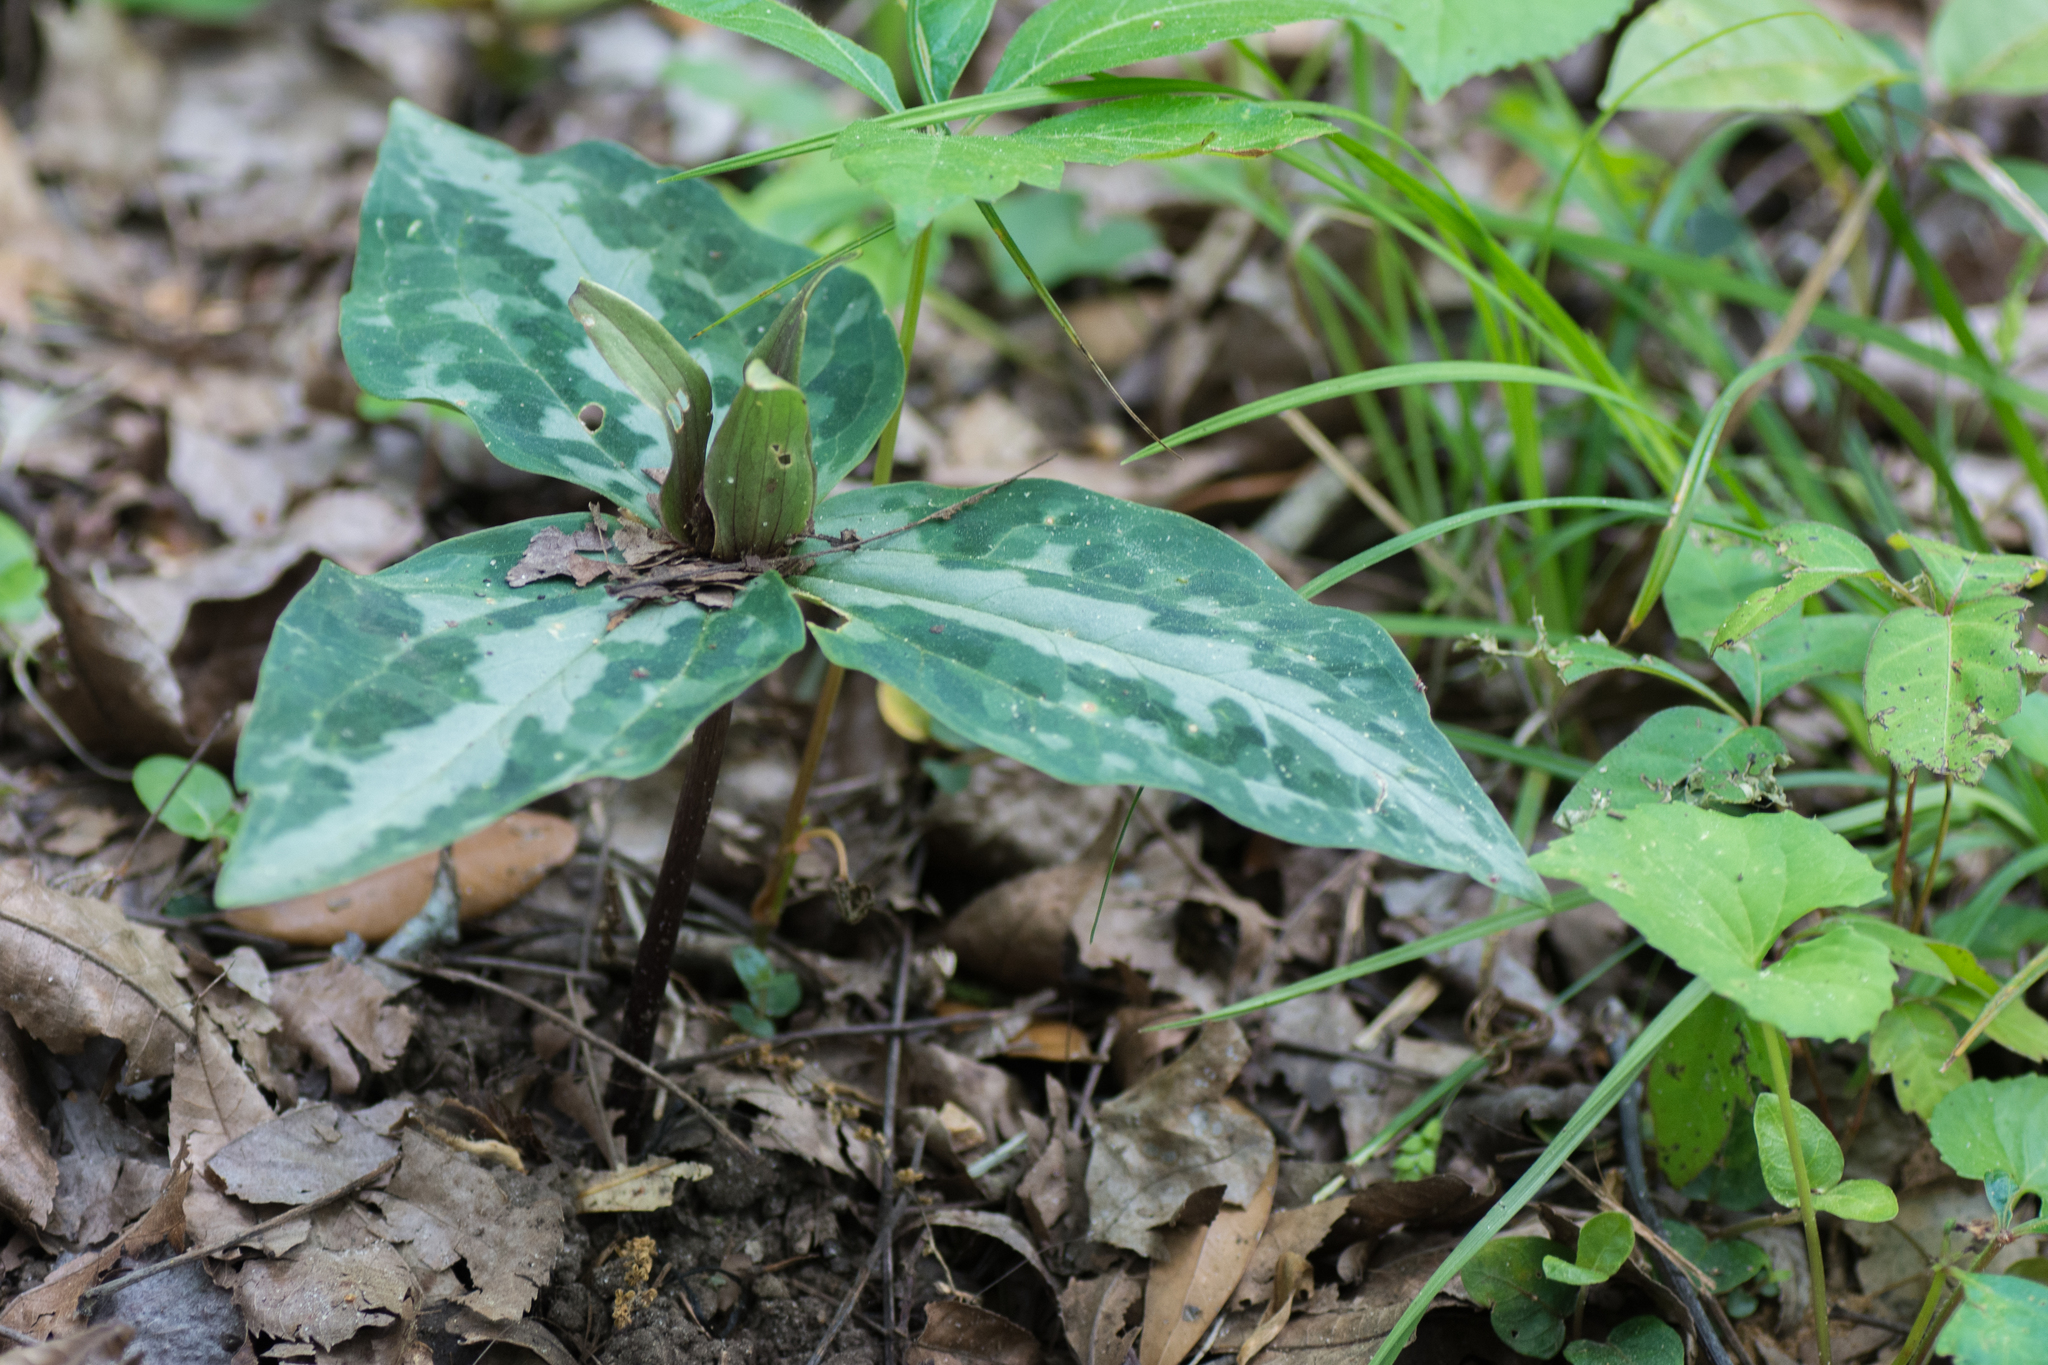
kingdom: Plantae
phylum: Tracheophyta
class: Liliopsida
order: Liliales
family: Melanthiaceae
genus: Trillium
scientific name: Trillium underwoodii
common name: Longbract wakerobin
